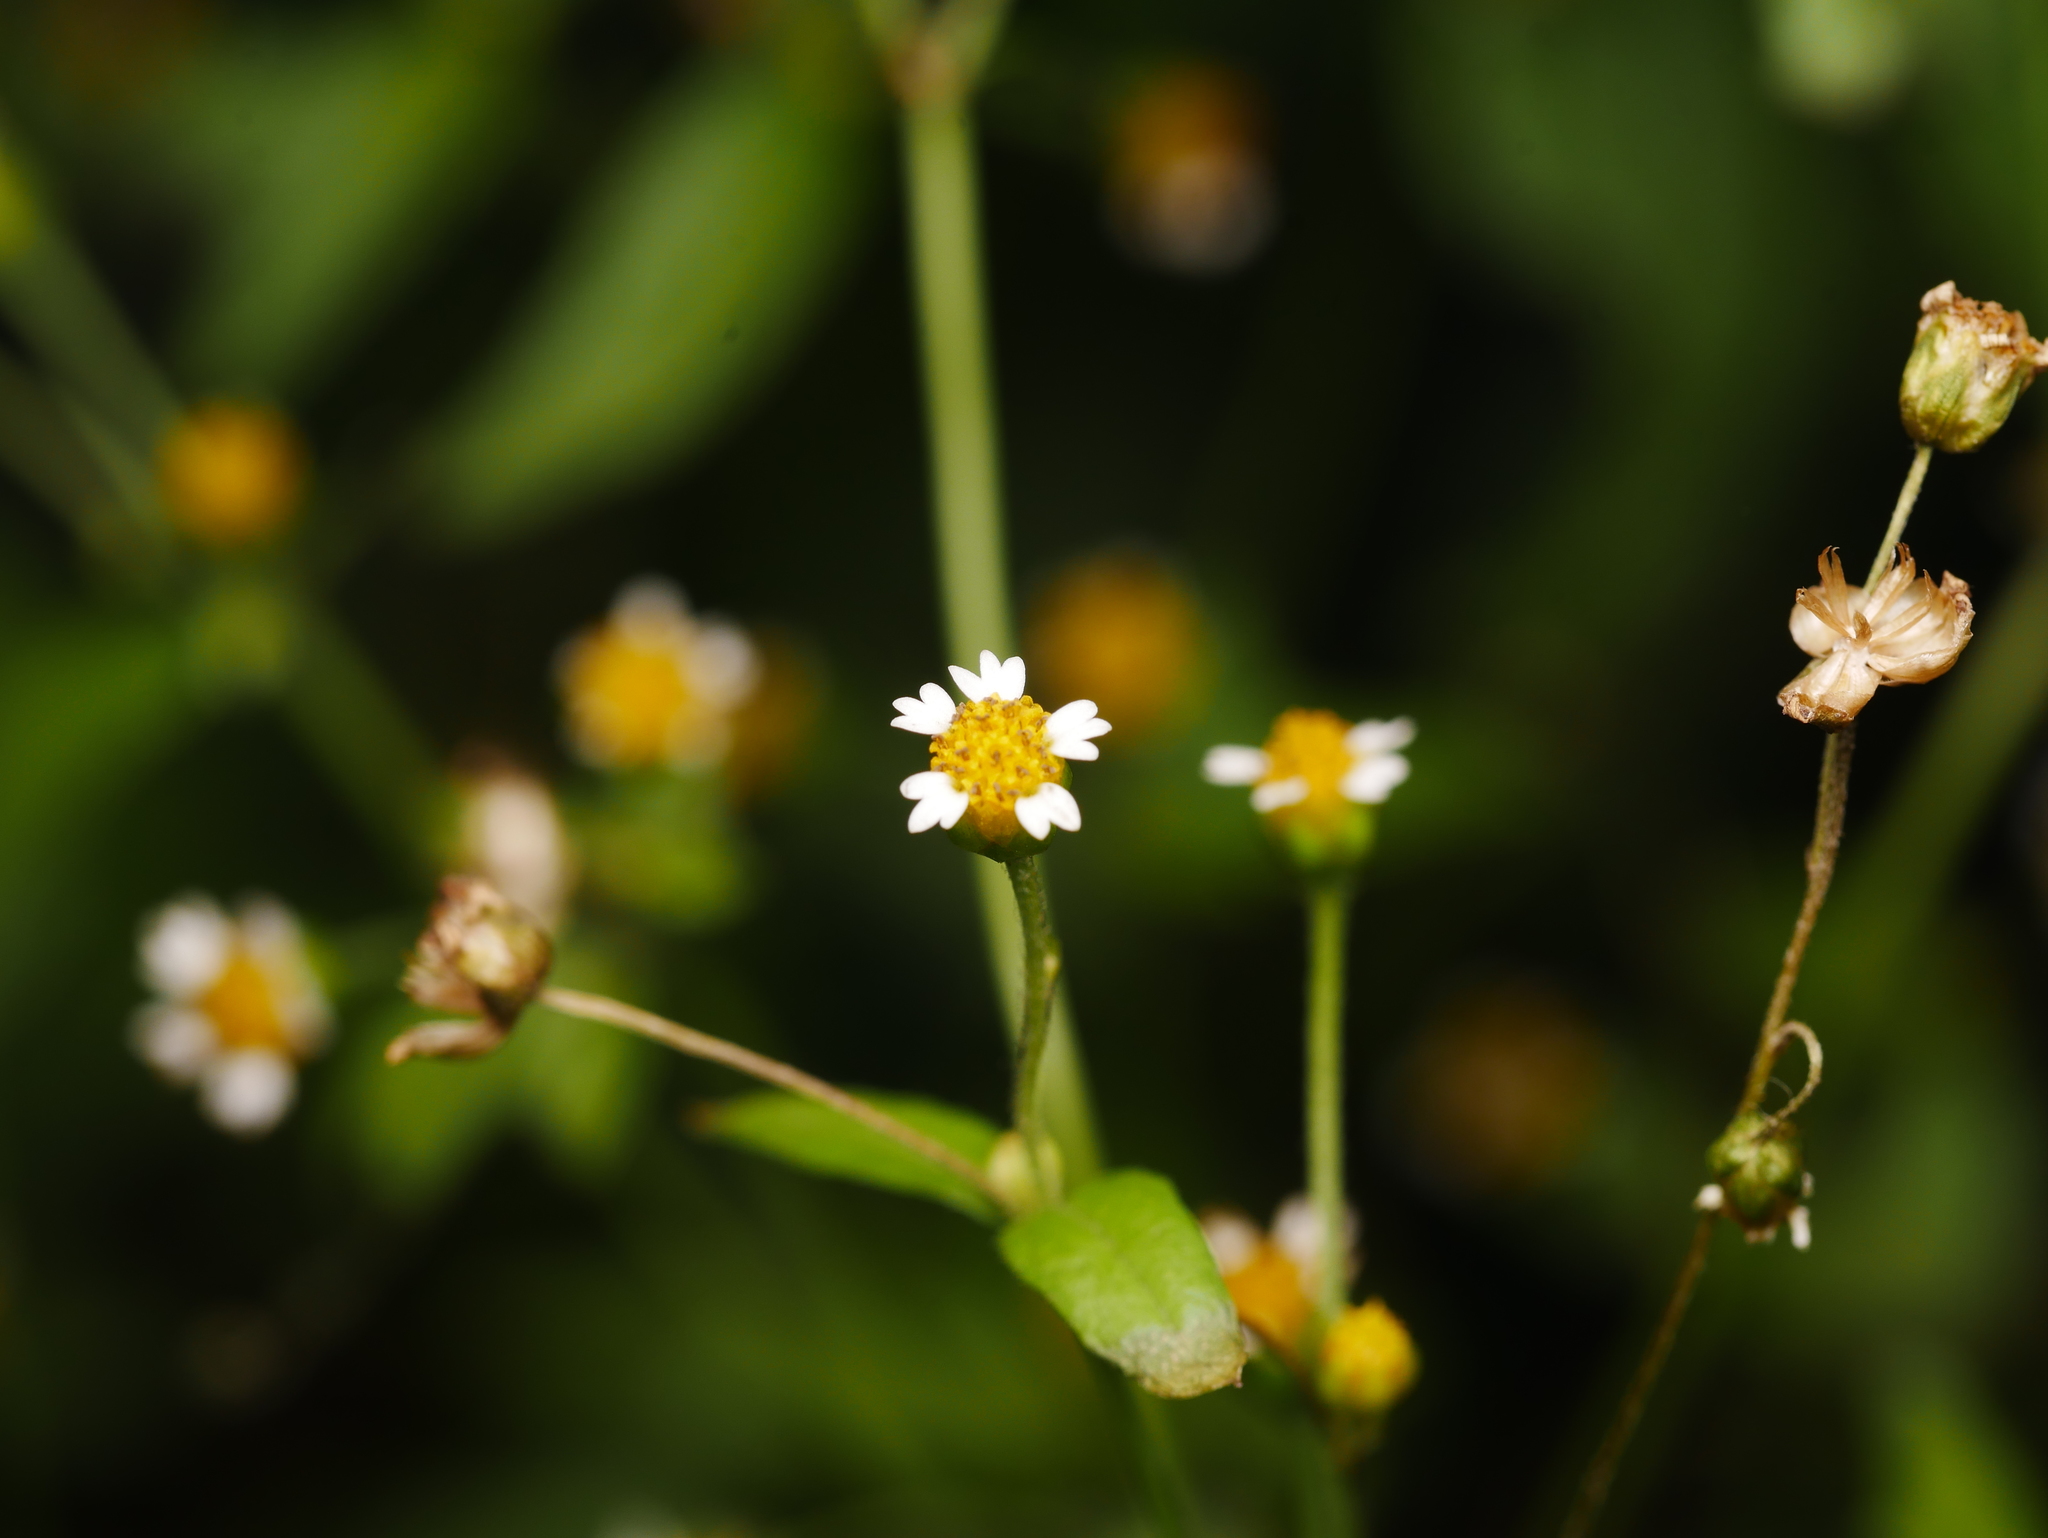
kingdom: Plantae
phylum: Tracheophyta
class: Magnoliopsida
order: Asterales
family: Asteraceae
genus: Galinsoga
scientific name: Galinsoga parviflora
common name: Gallant soldier
